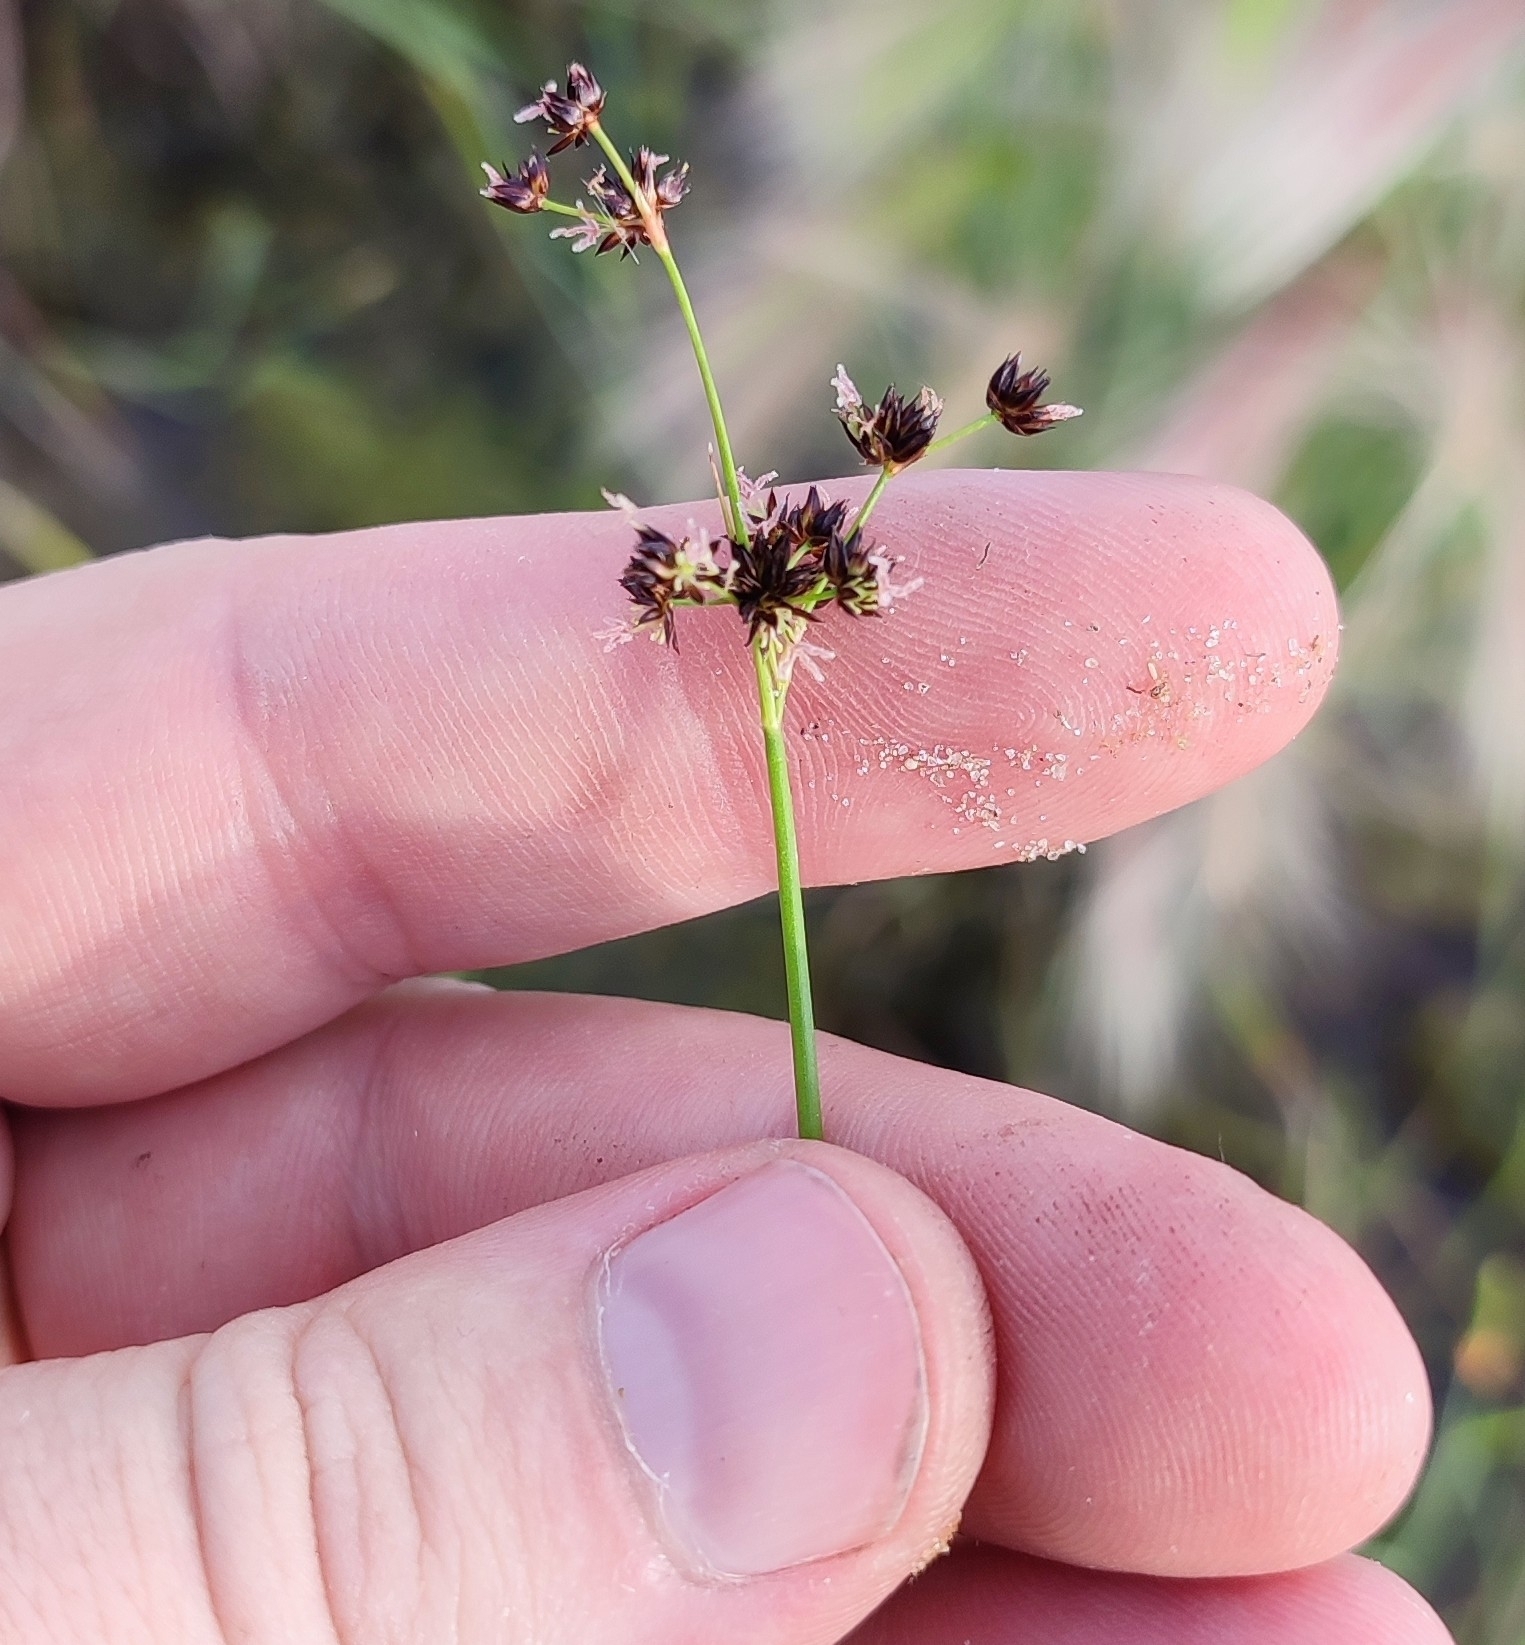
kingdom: Plantae
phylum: Tracheophyta
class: Liliopsida
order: Poales
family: Juncaceae
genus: Juncus
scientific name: Juncus articulatus
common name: Jointed rush
